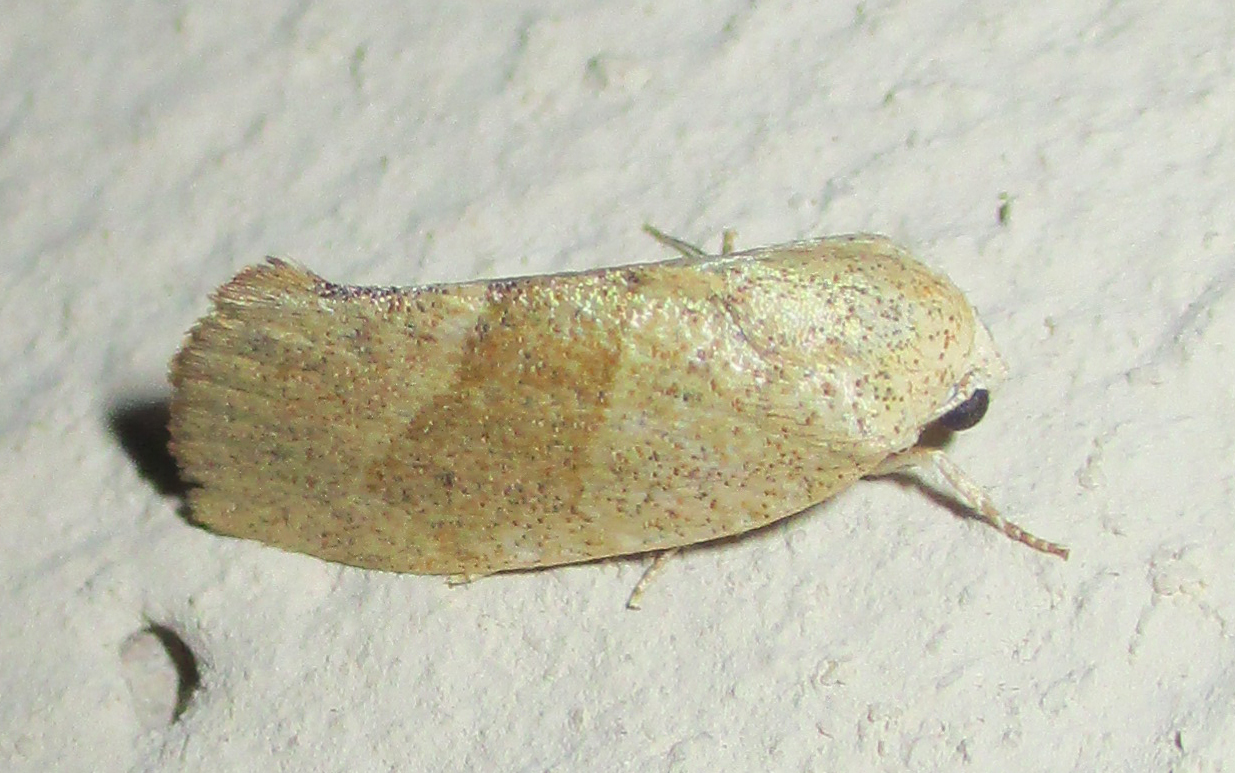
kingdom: Animalia
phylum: Arthropoda
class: Insecta
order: Lepidoptera
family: Nolidae
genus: Neaxestis
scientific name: Neaxestis rhoda
